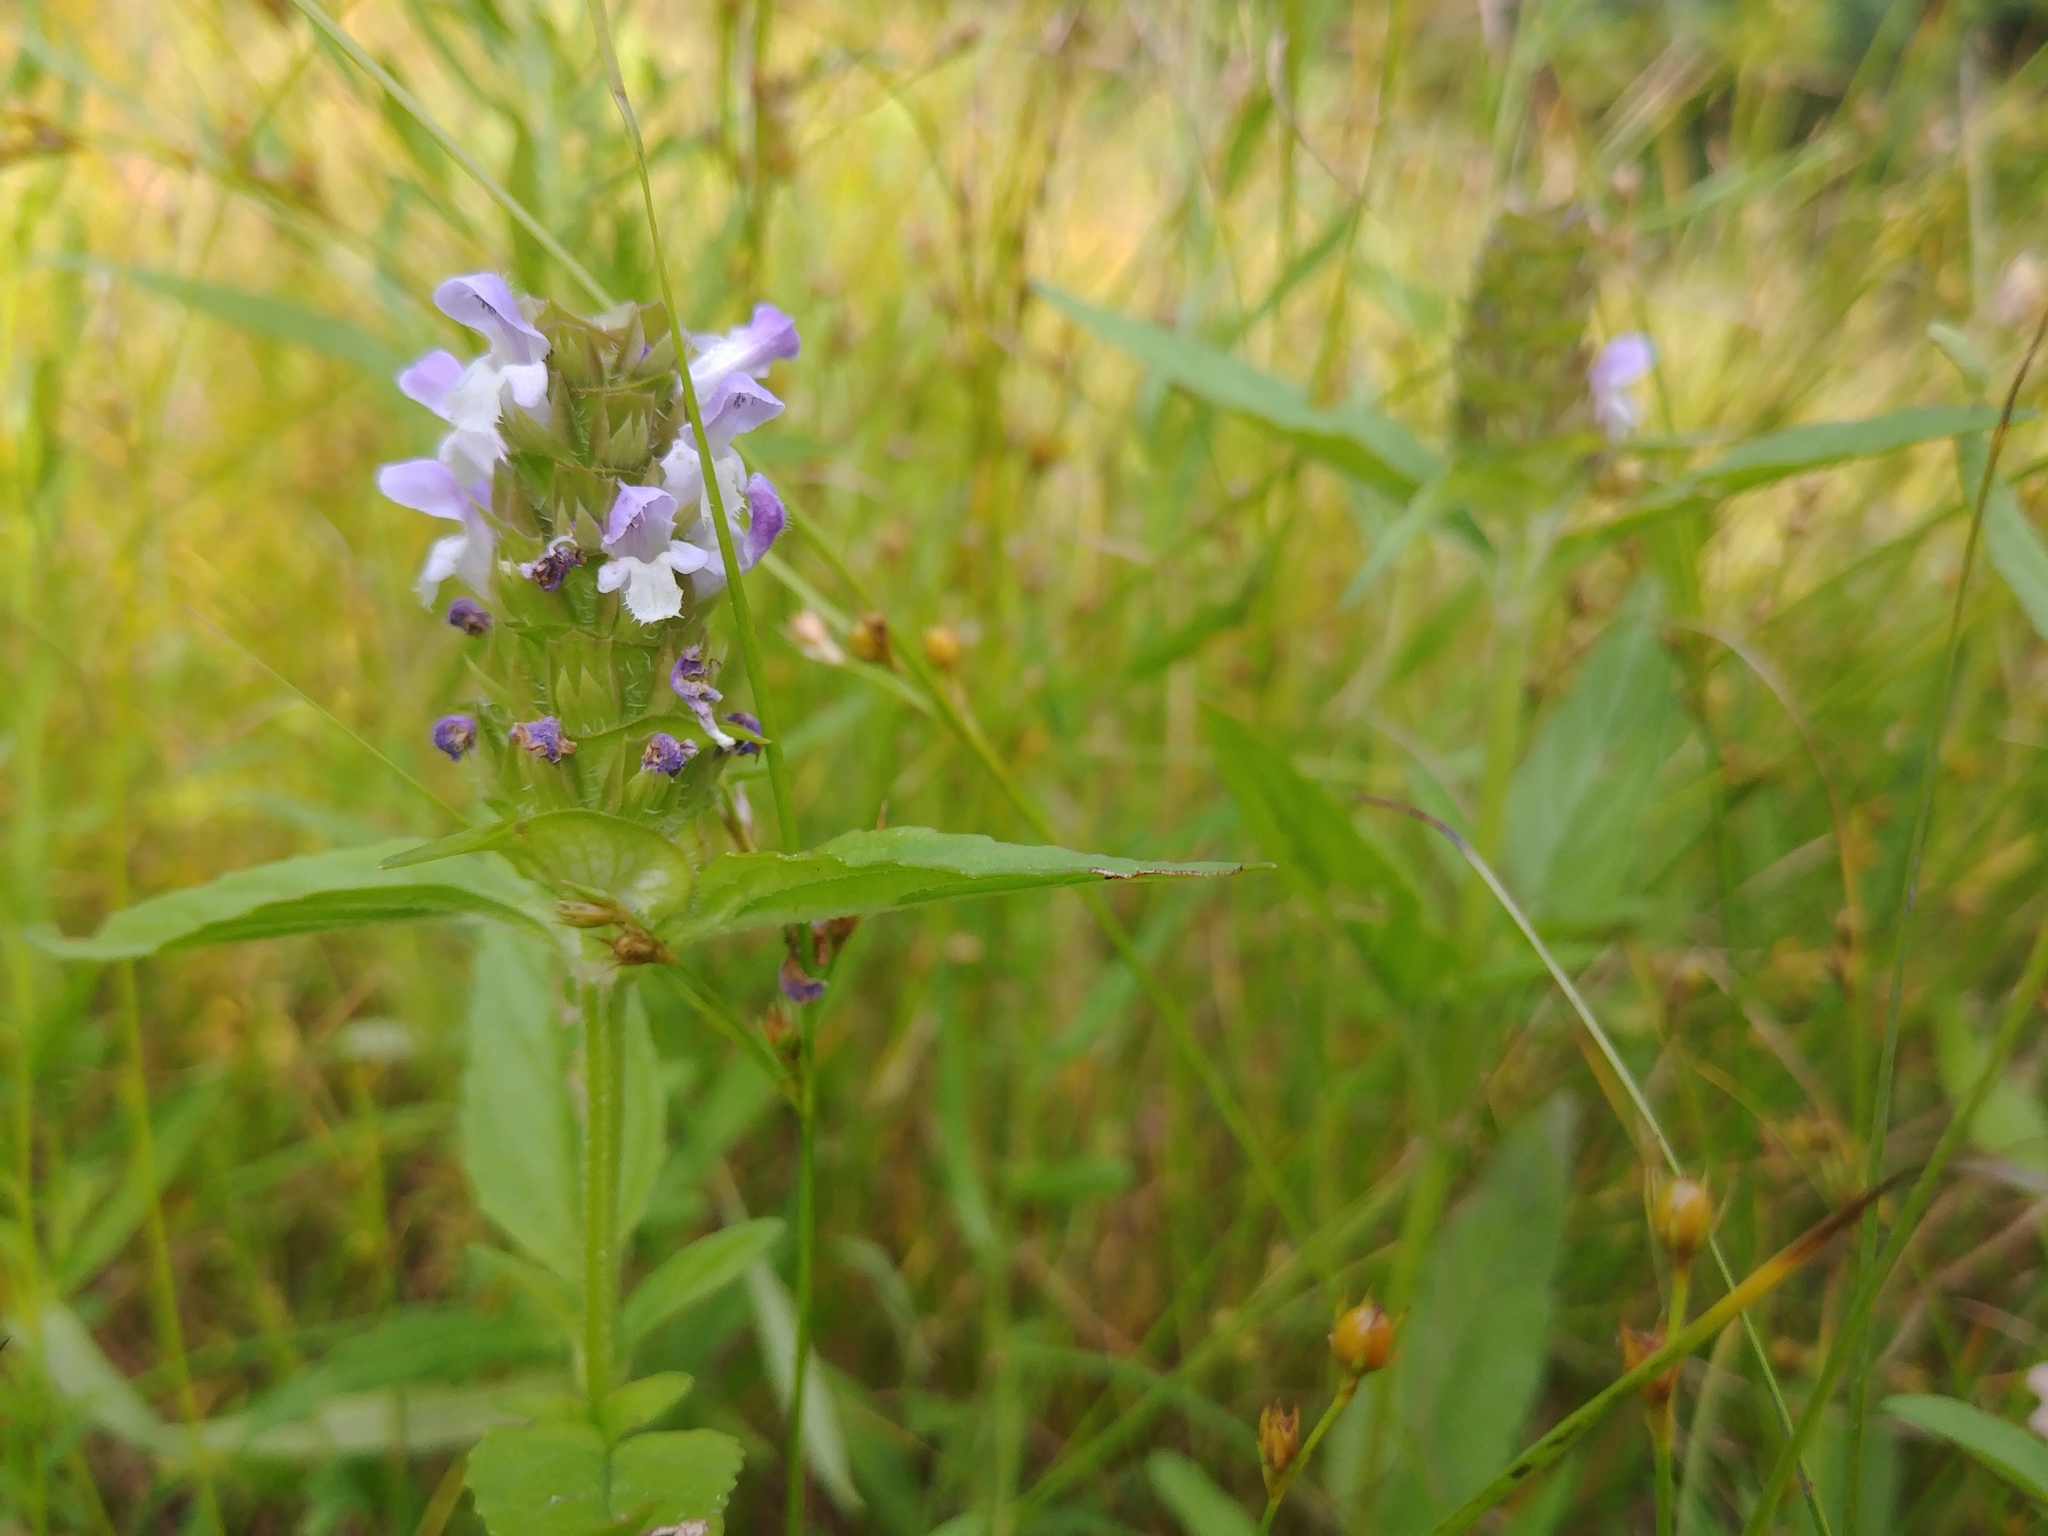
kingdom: Plantae
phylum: Tracheophyta
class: Magnoliopsida
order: Lamiales
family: Lamiaceae
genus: Prunella
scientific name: Prunella vulgaris
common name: Heal-all
